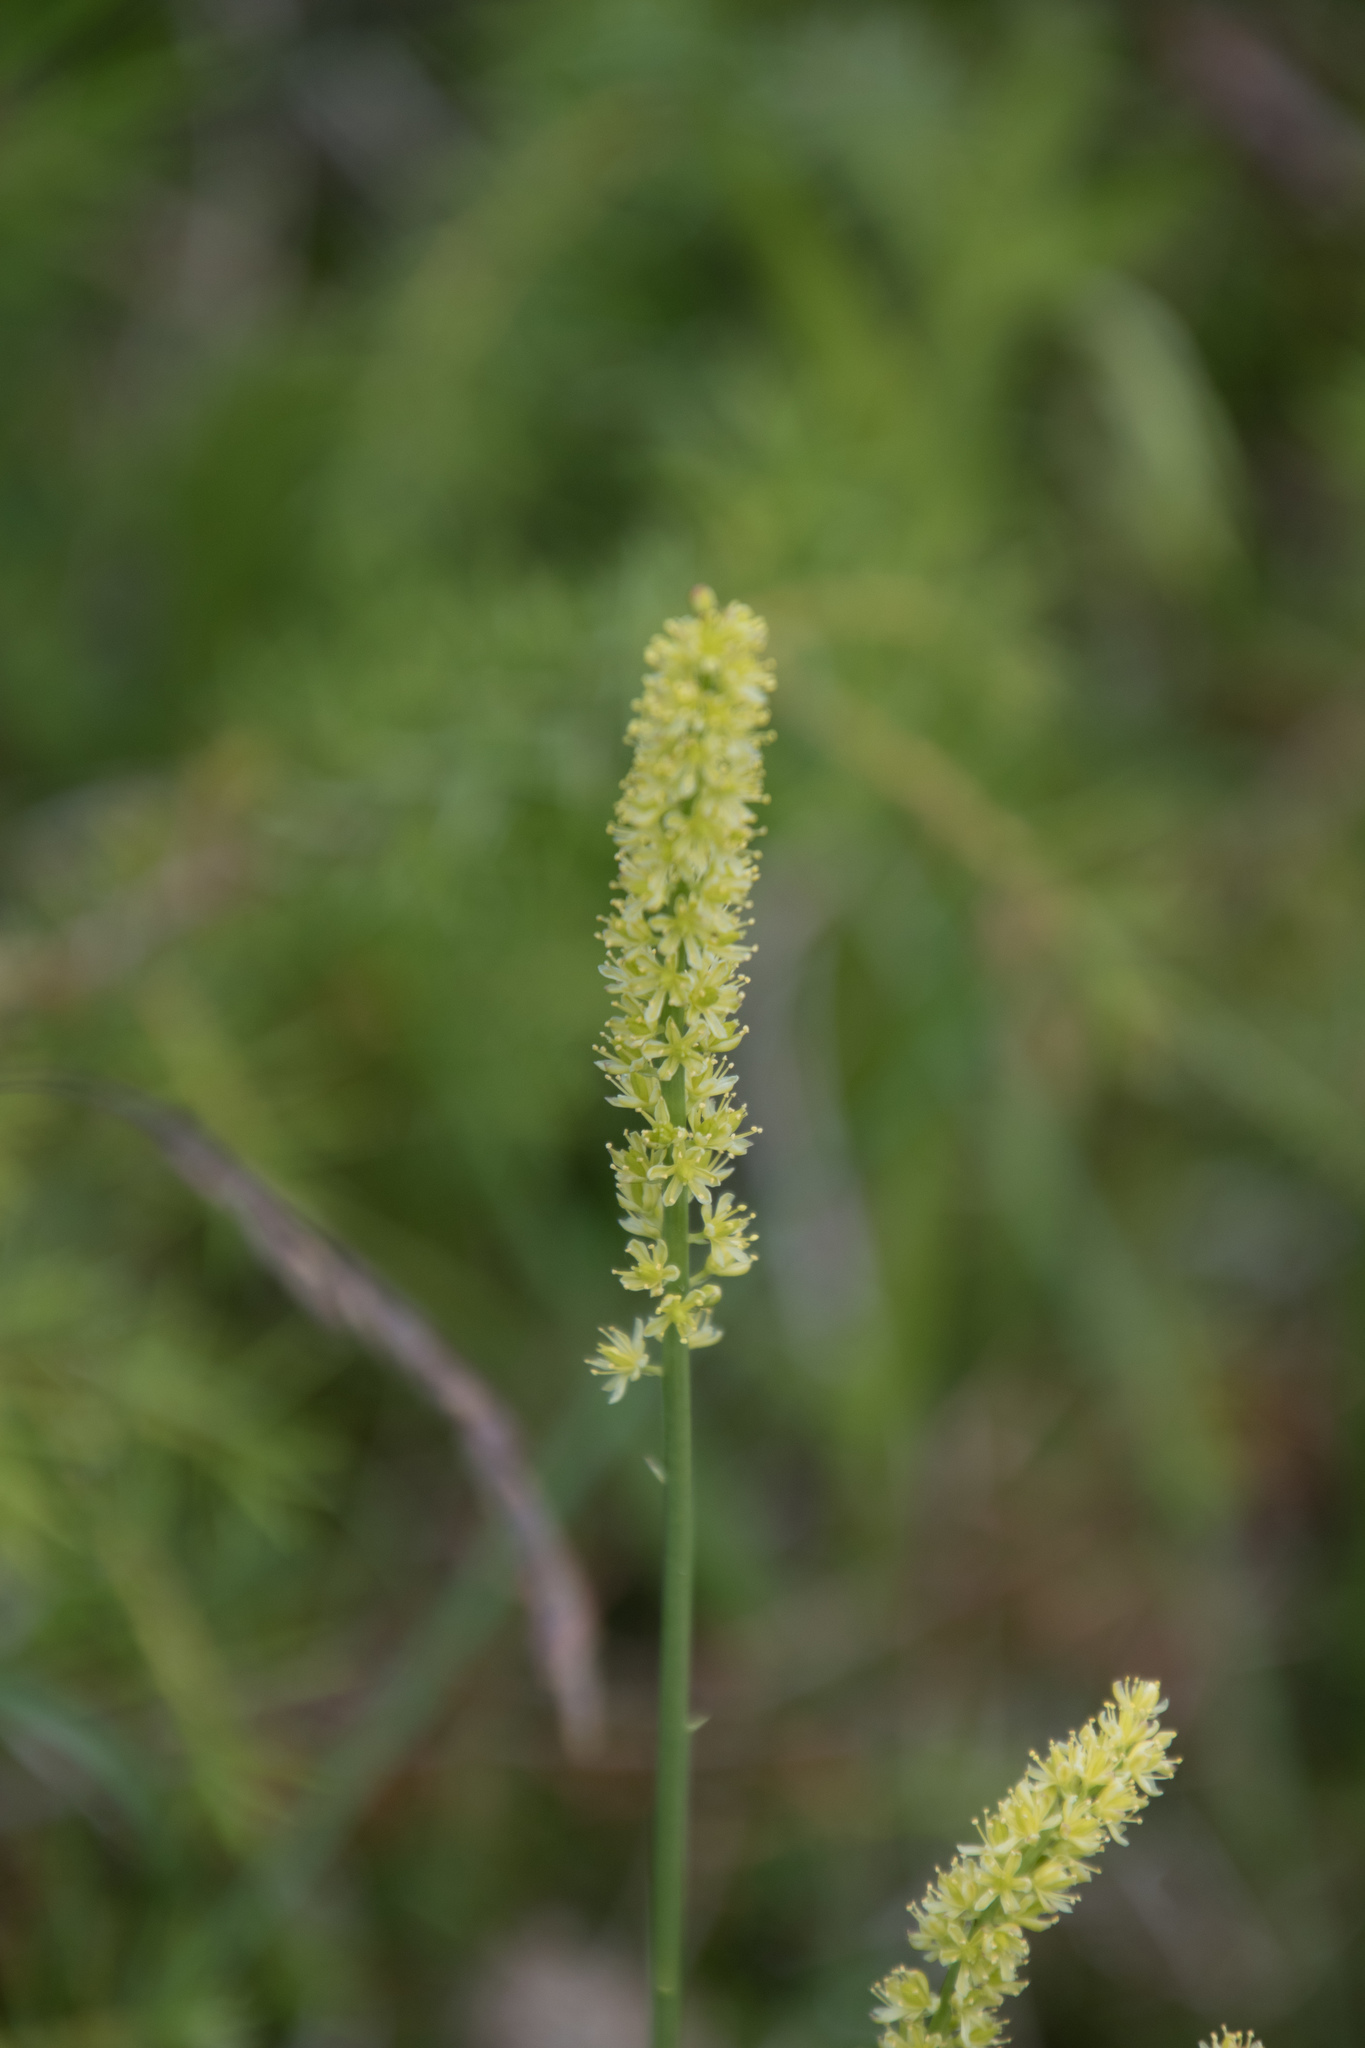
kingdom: Plantae
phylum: Tracheophyta
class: Liliopsida
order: Alismatales
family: Tofieldiaceae
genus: Tofieldia
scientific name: Tofieldia calyculata
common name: German-asphodel
